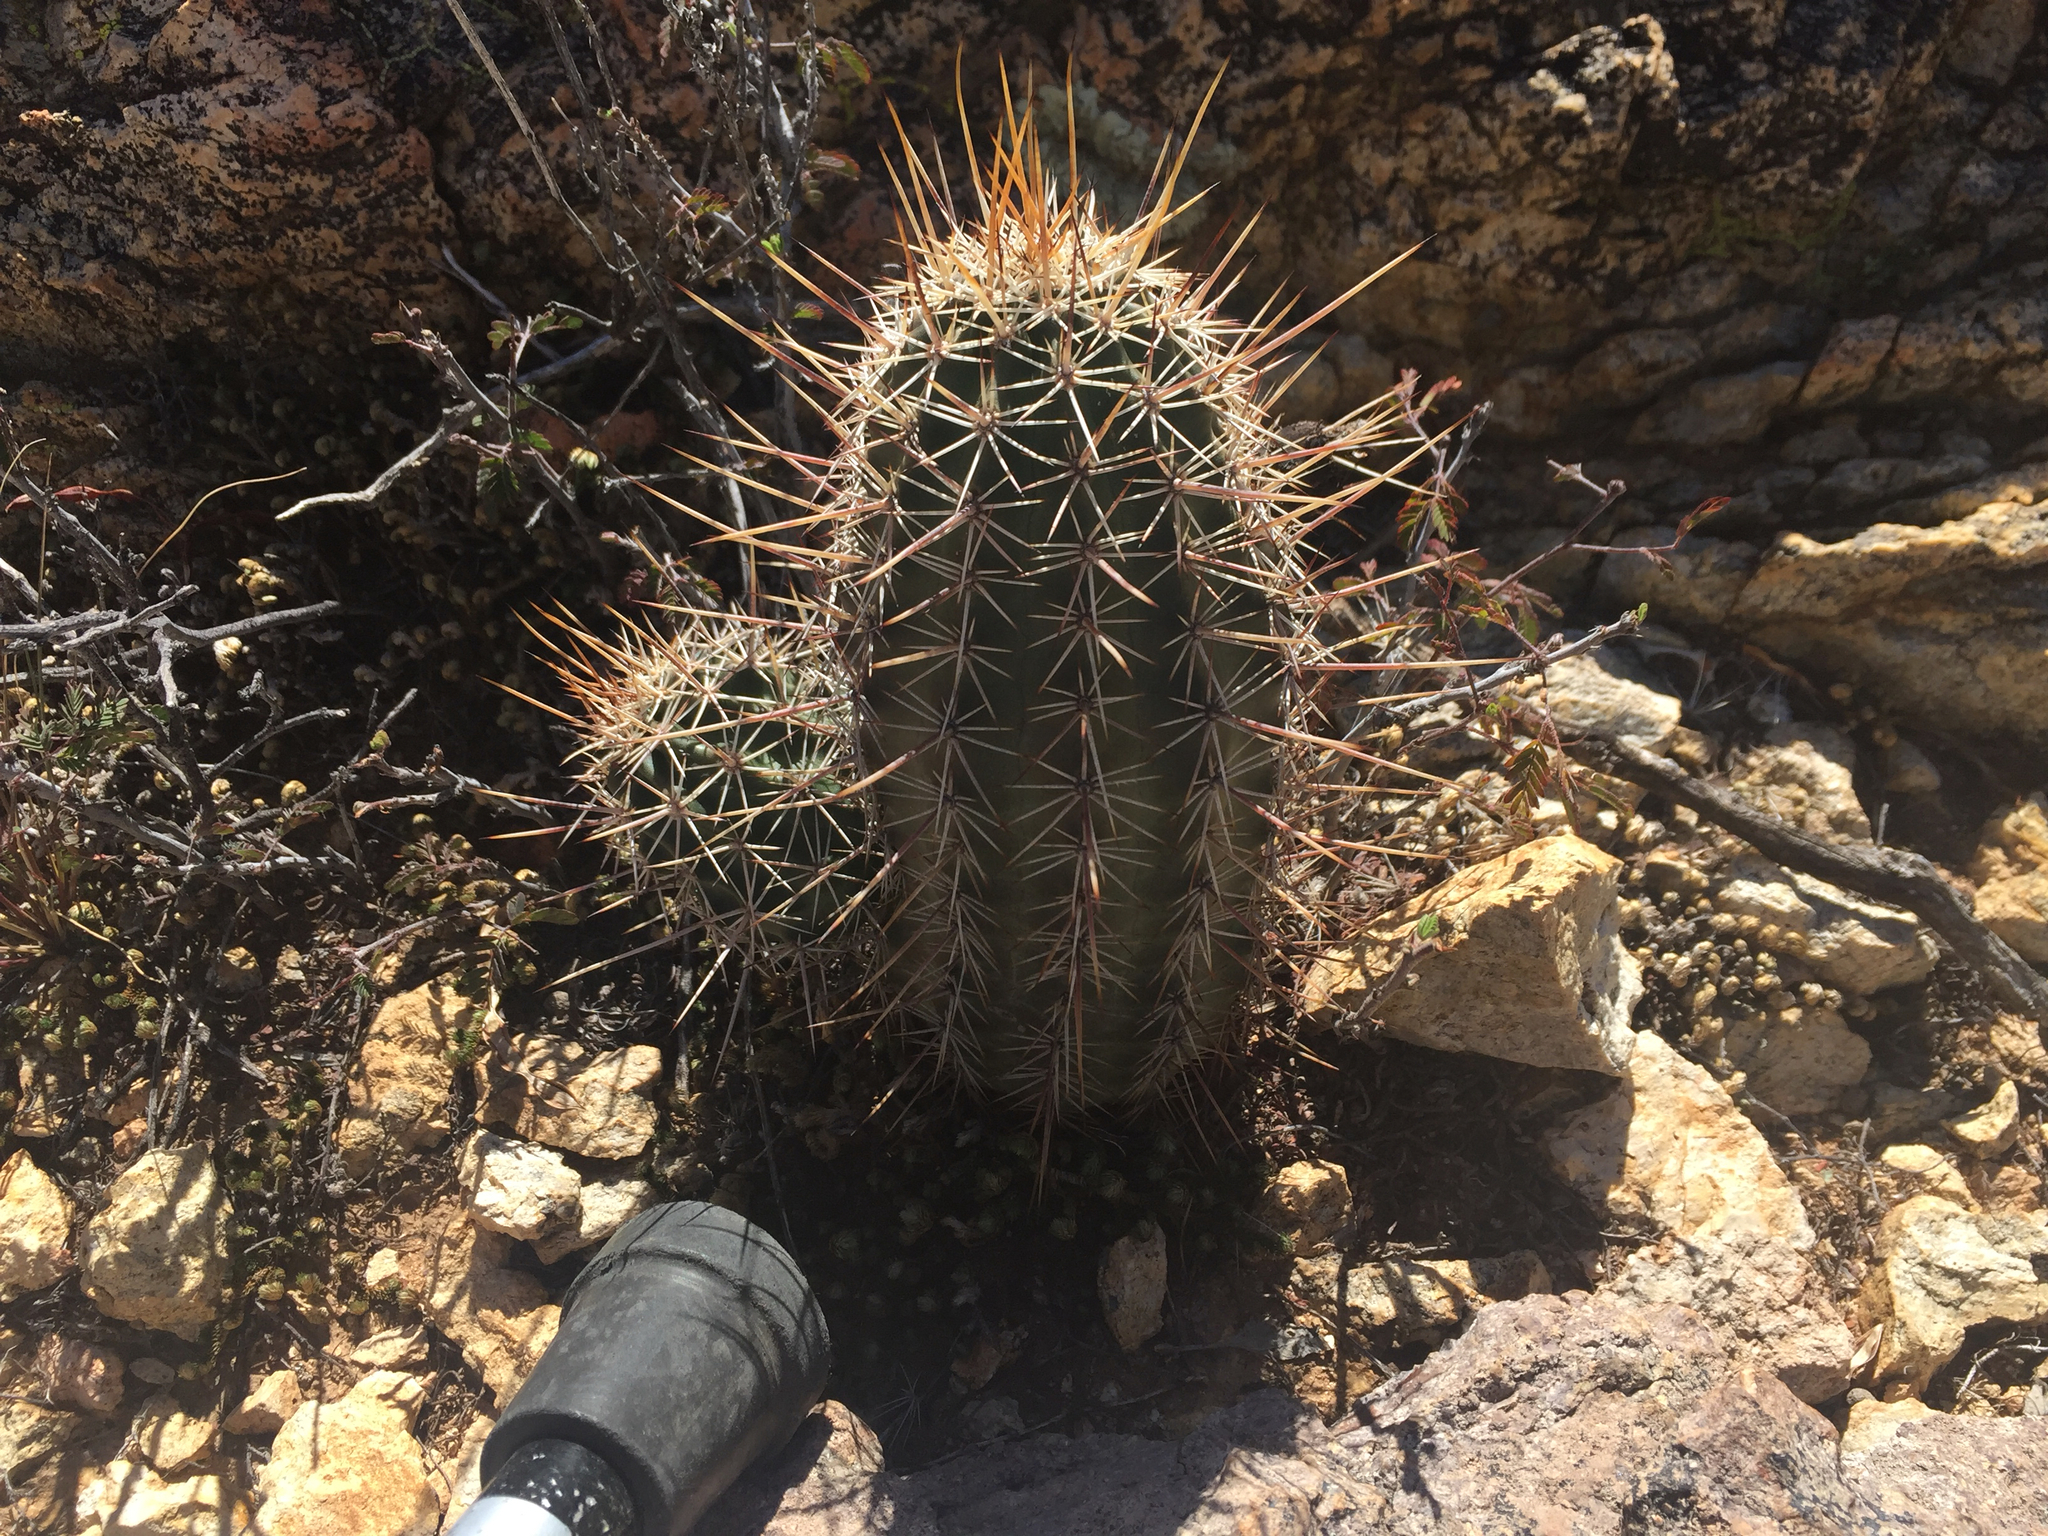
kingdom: Plantae
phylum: Tracheophyta
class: Magnoliopsida
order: Caryophyllales
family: Cactaceae
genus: Echinocereus
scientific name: Echinocereus fasciculatus
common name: Bundle hedgehog
